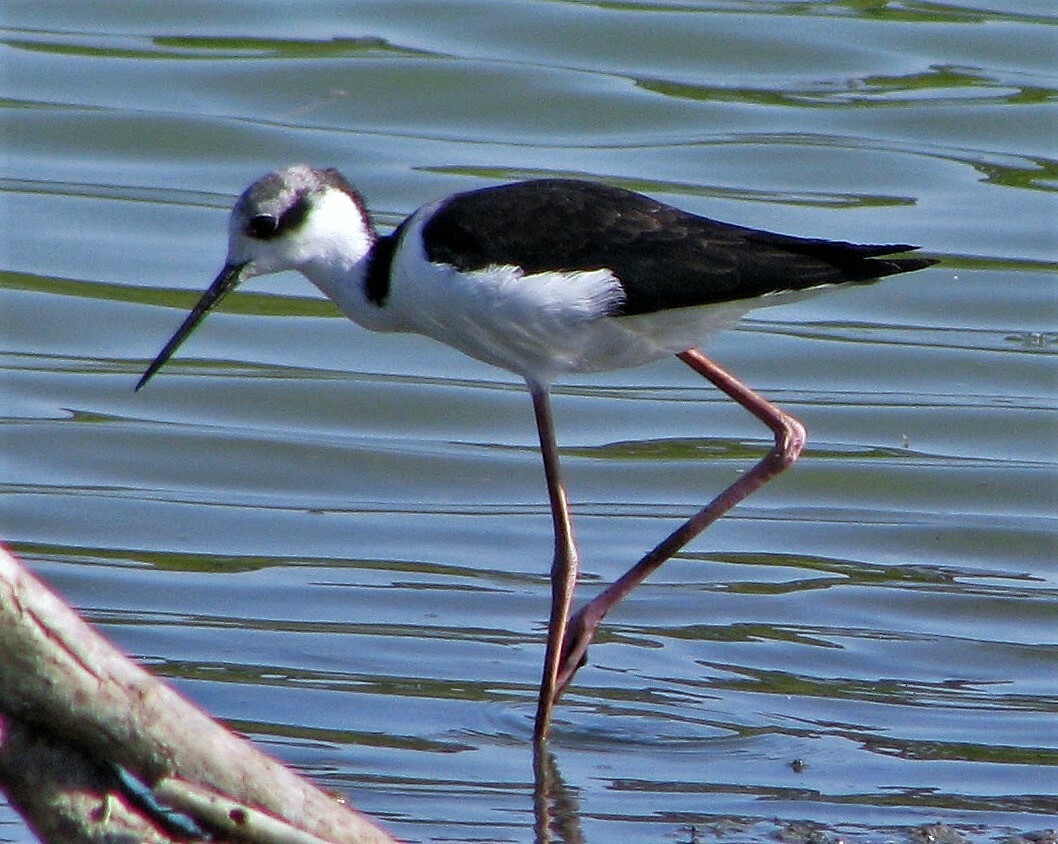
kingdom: Animalia
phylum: Chordata
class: Aves
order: Charadriiformes
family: Recurvirostridae
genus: Himantopus
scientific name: Himantopus mexicanus
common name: Black-necked stilt
